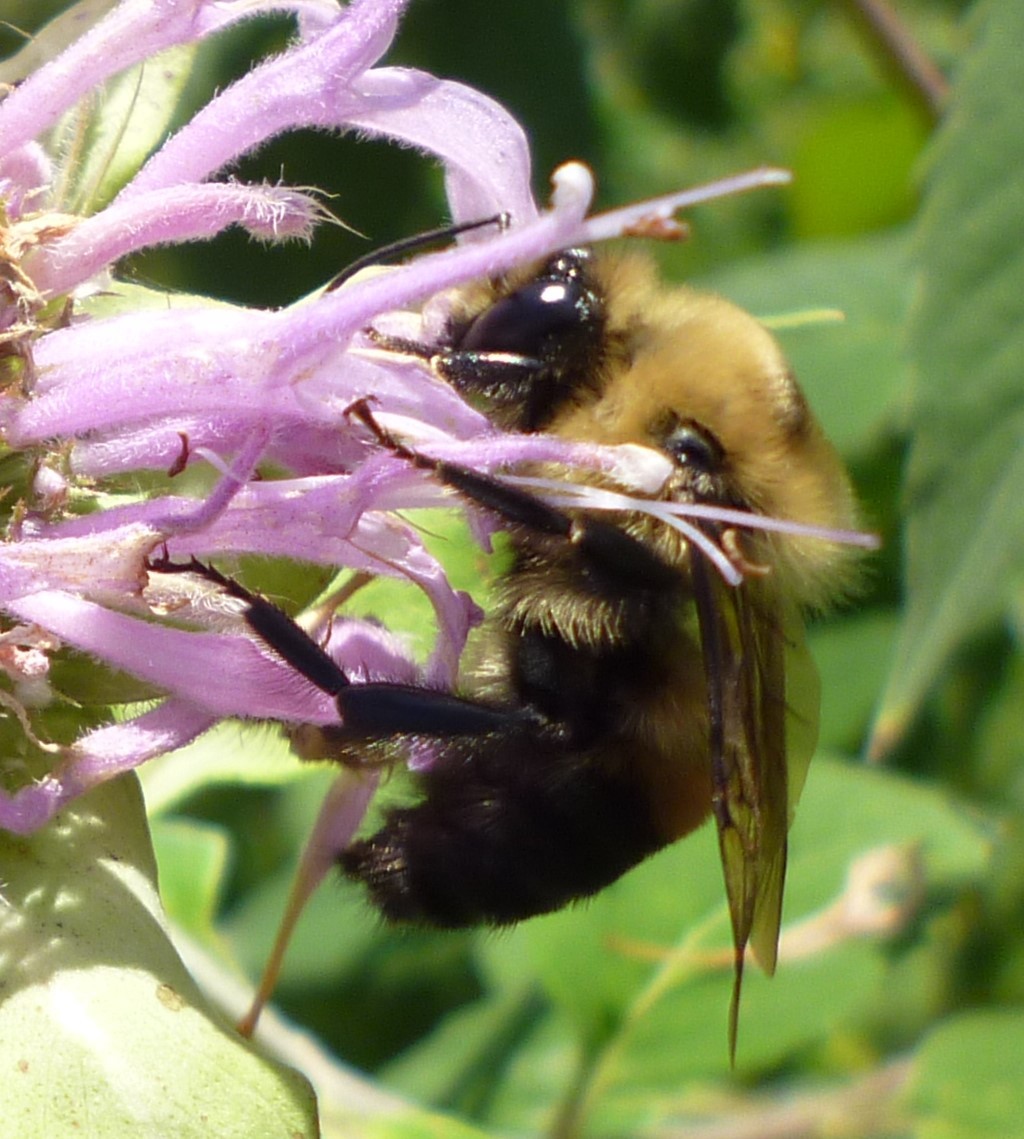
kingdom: Animalia
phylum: Arthropoda
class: Insecta
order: Hymenoptera
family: Apidae
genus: Bombus
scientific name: Bombus griseocollis
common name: Brown-belted bumble bee
